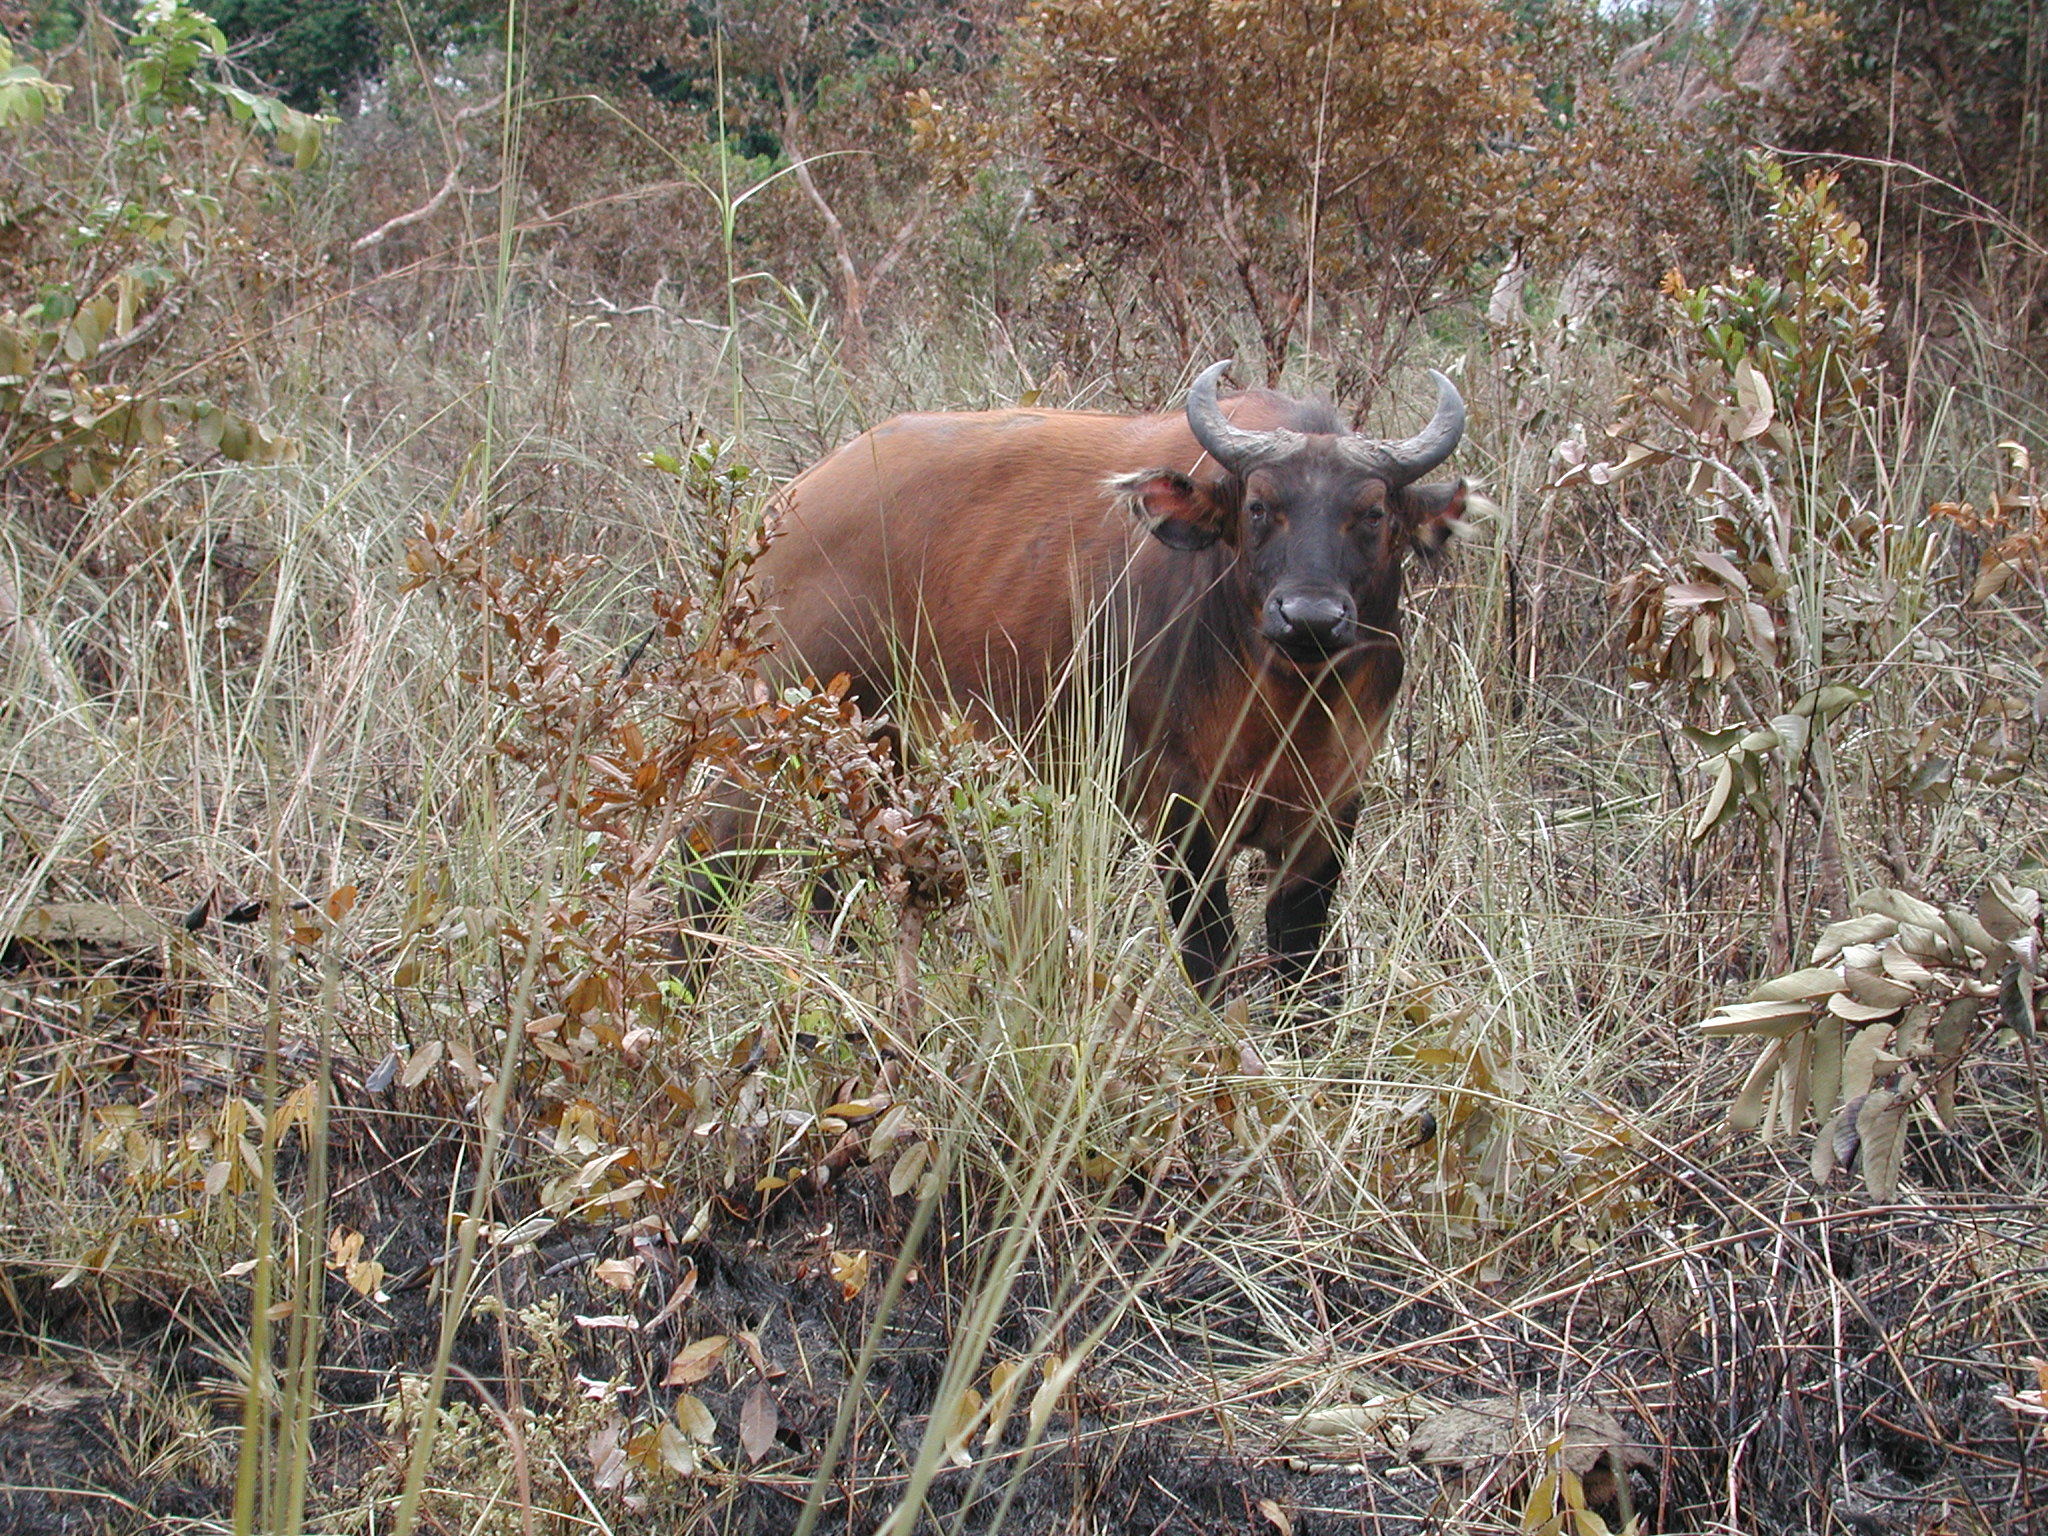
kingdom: Animalia
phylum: Chordata
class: Mammalia
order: Artiodactyla
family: Bovidae
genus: Syncerus
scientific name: Syncerus caffer
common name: African buffalo
